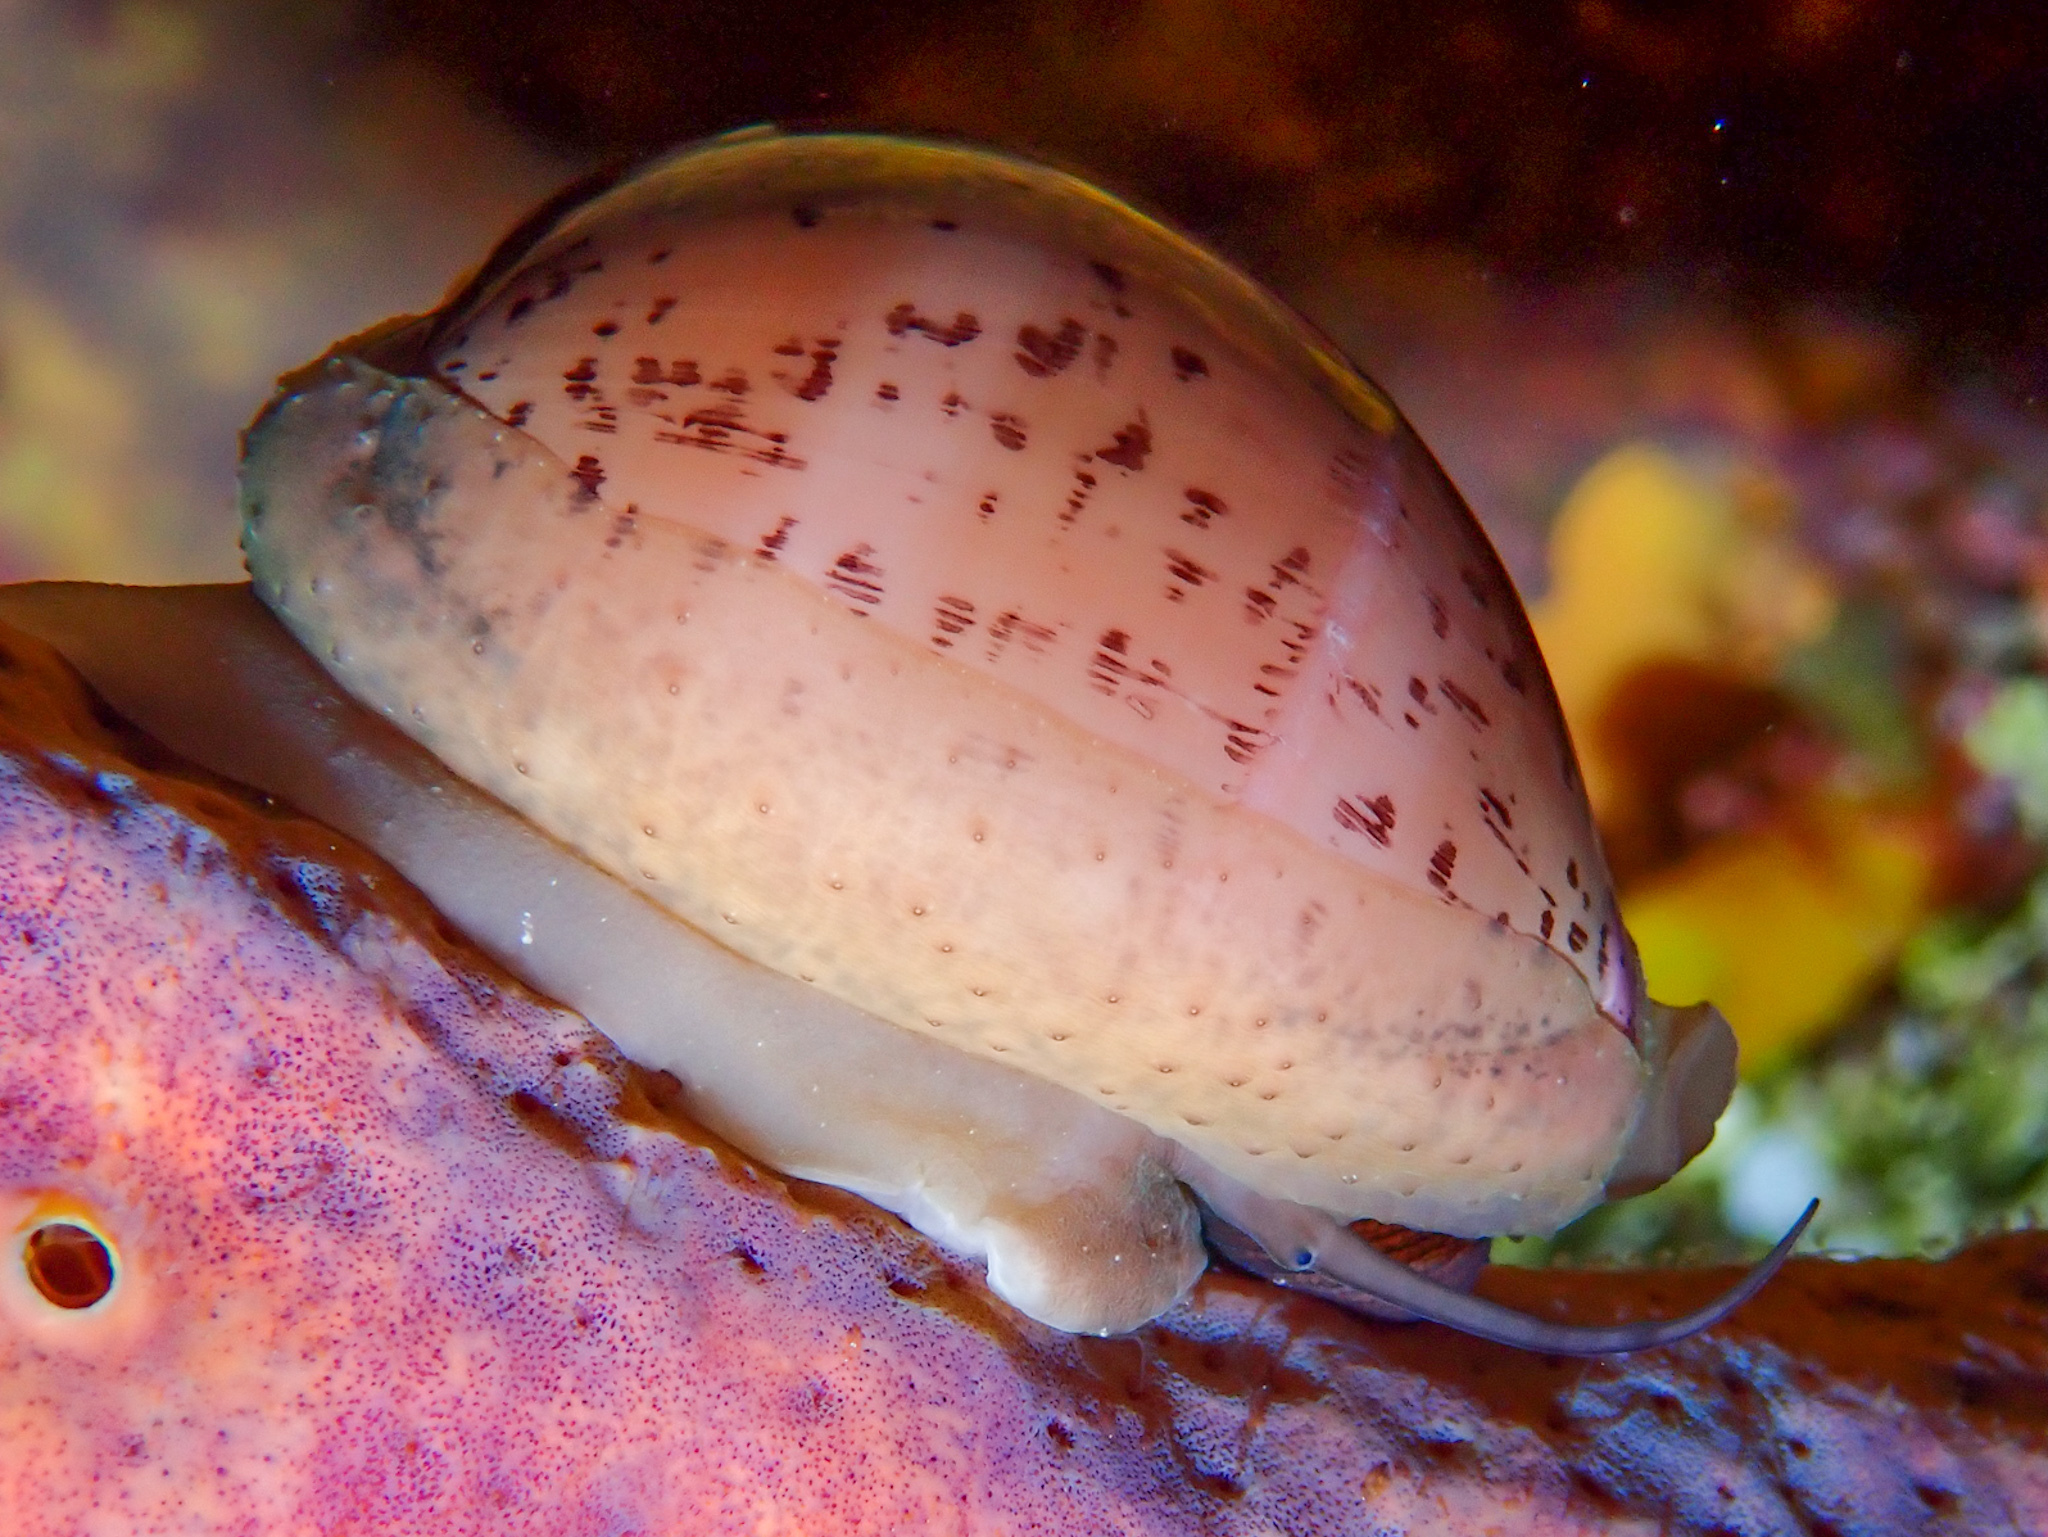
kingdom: Animalia
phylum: Mollusca
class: Gastropoda
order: Littorinimorpha
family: Cypraeidae
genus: Luria
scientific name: Luria cinerea
